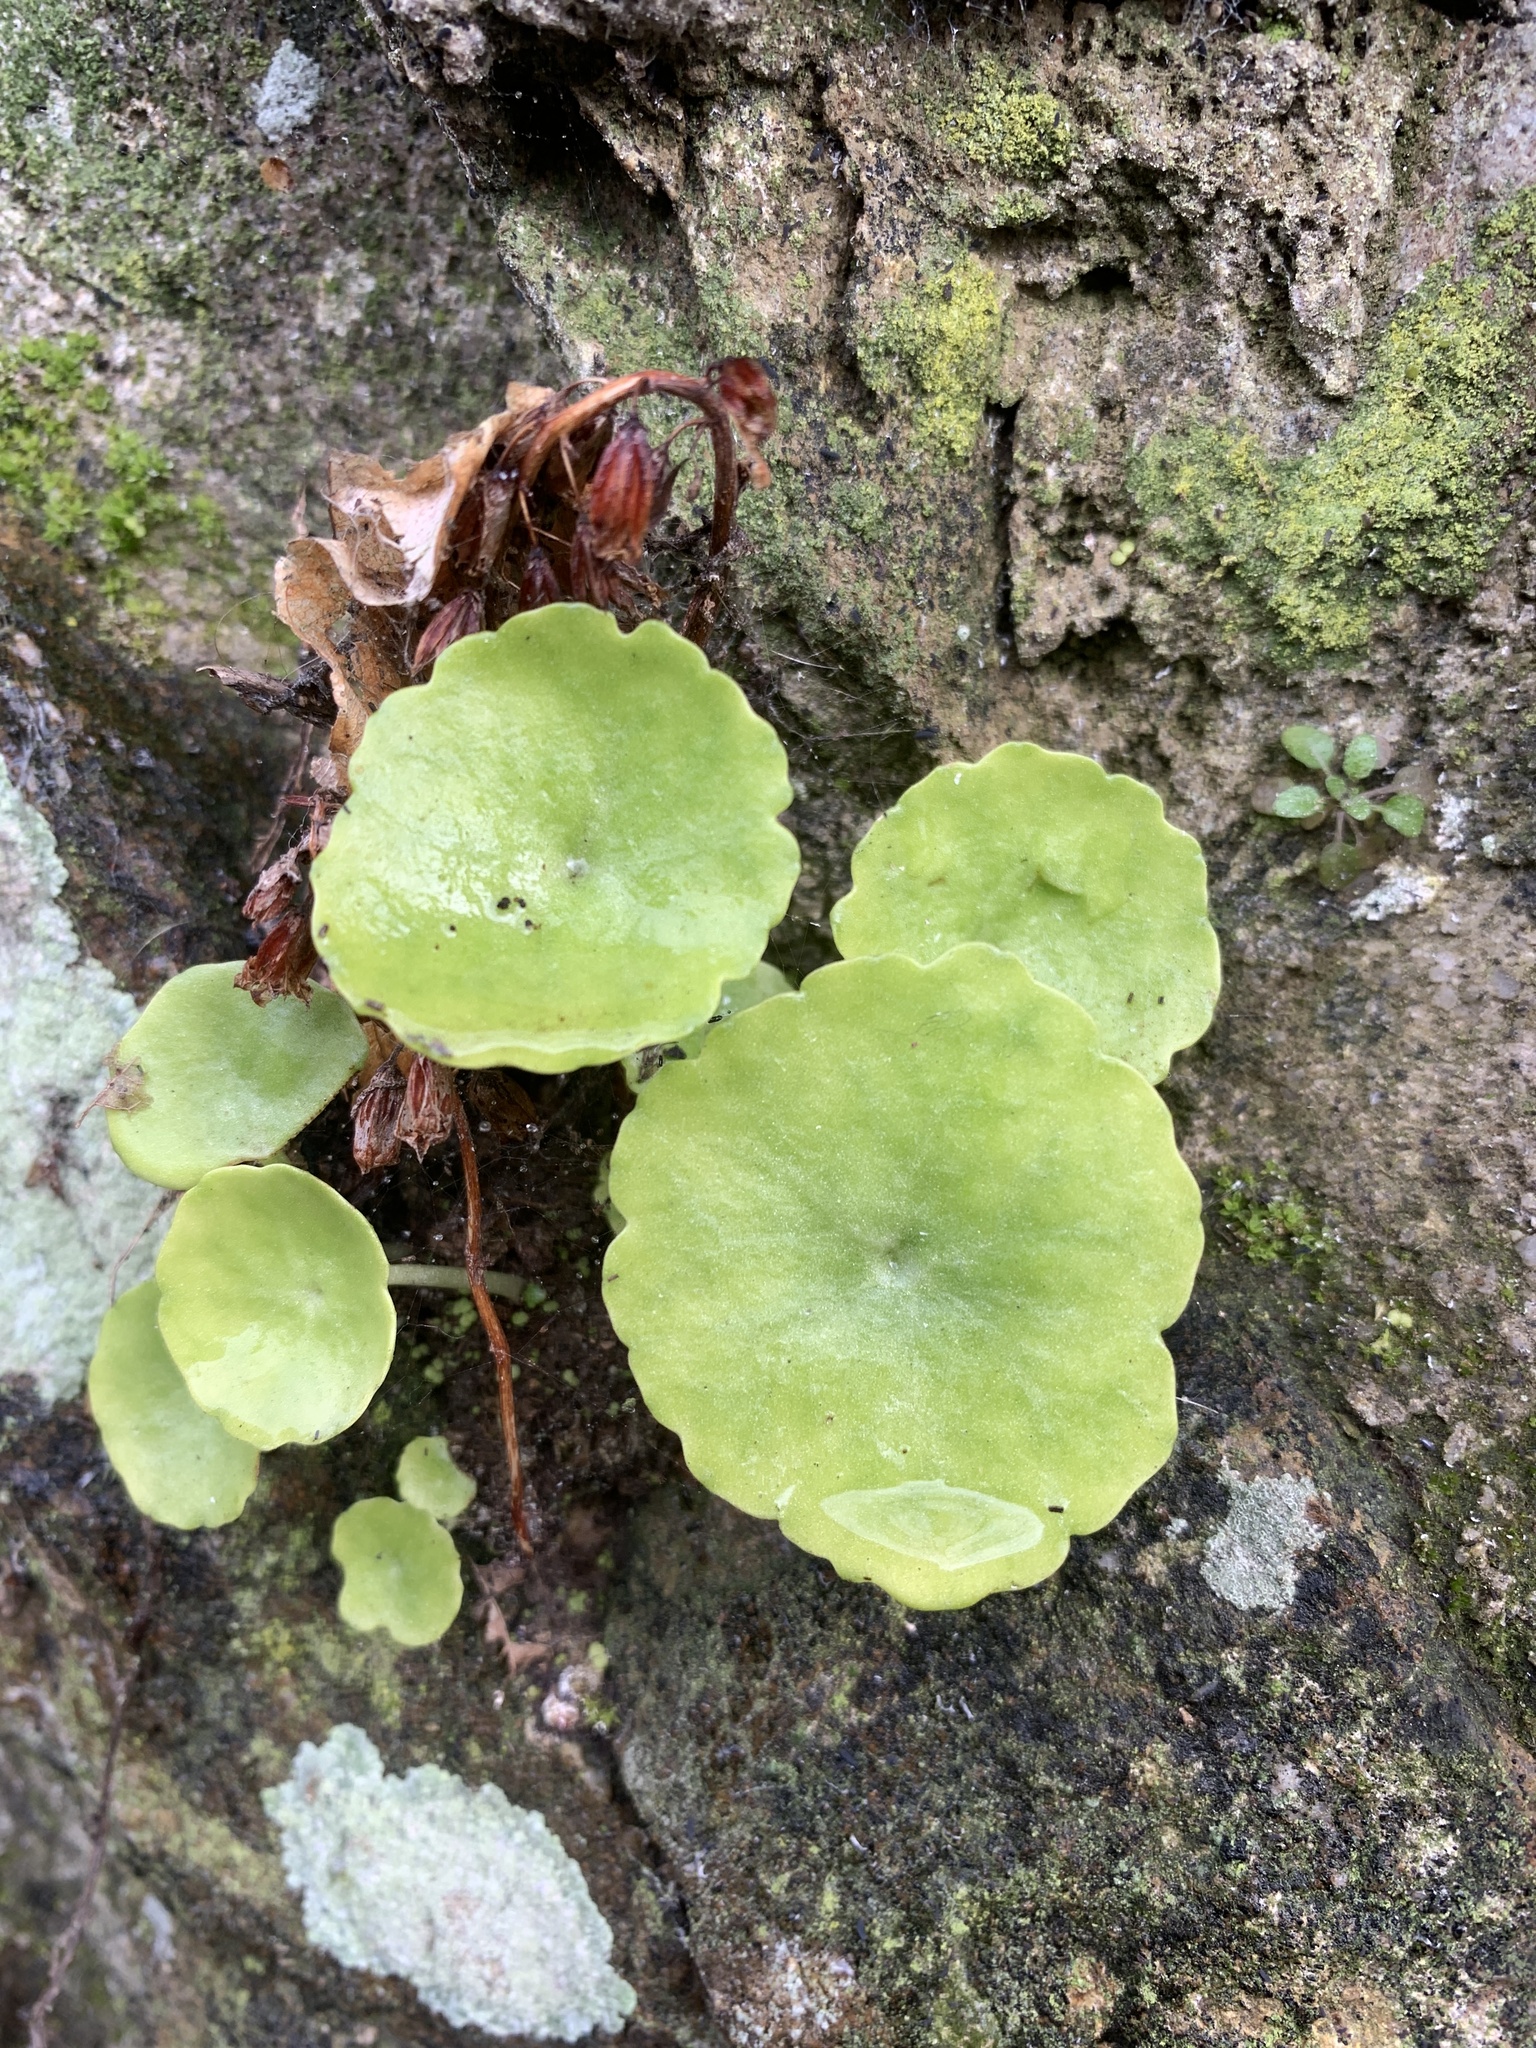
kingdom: Plantae
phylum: Tracheophyta
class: Magnoliopsida
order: Saxifragales
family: Crassulaceae
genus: Umbilicus
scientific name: Umbilicus rupestris
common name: Navelwort
